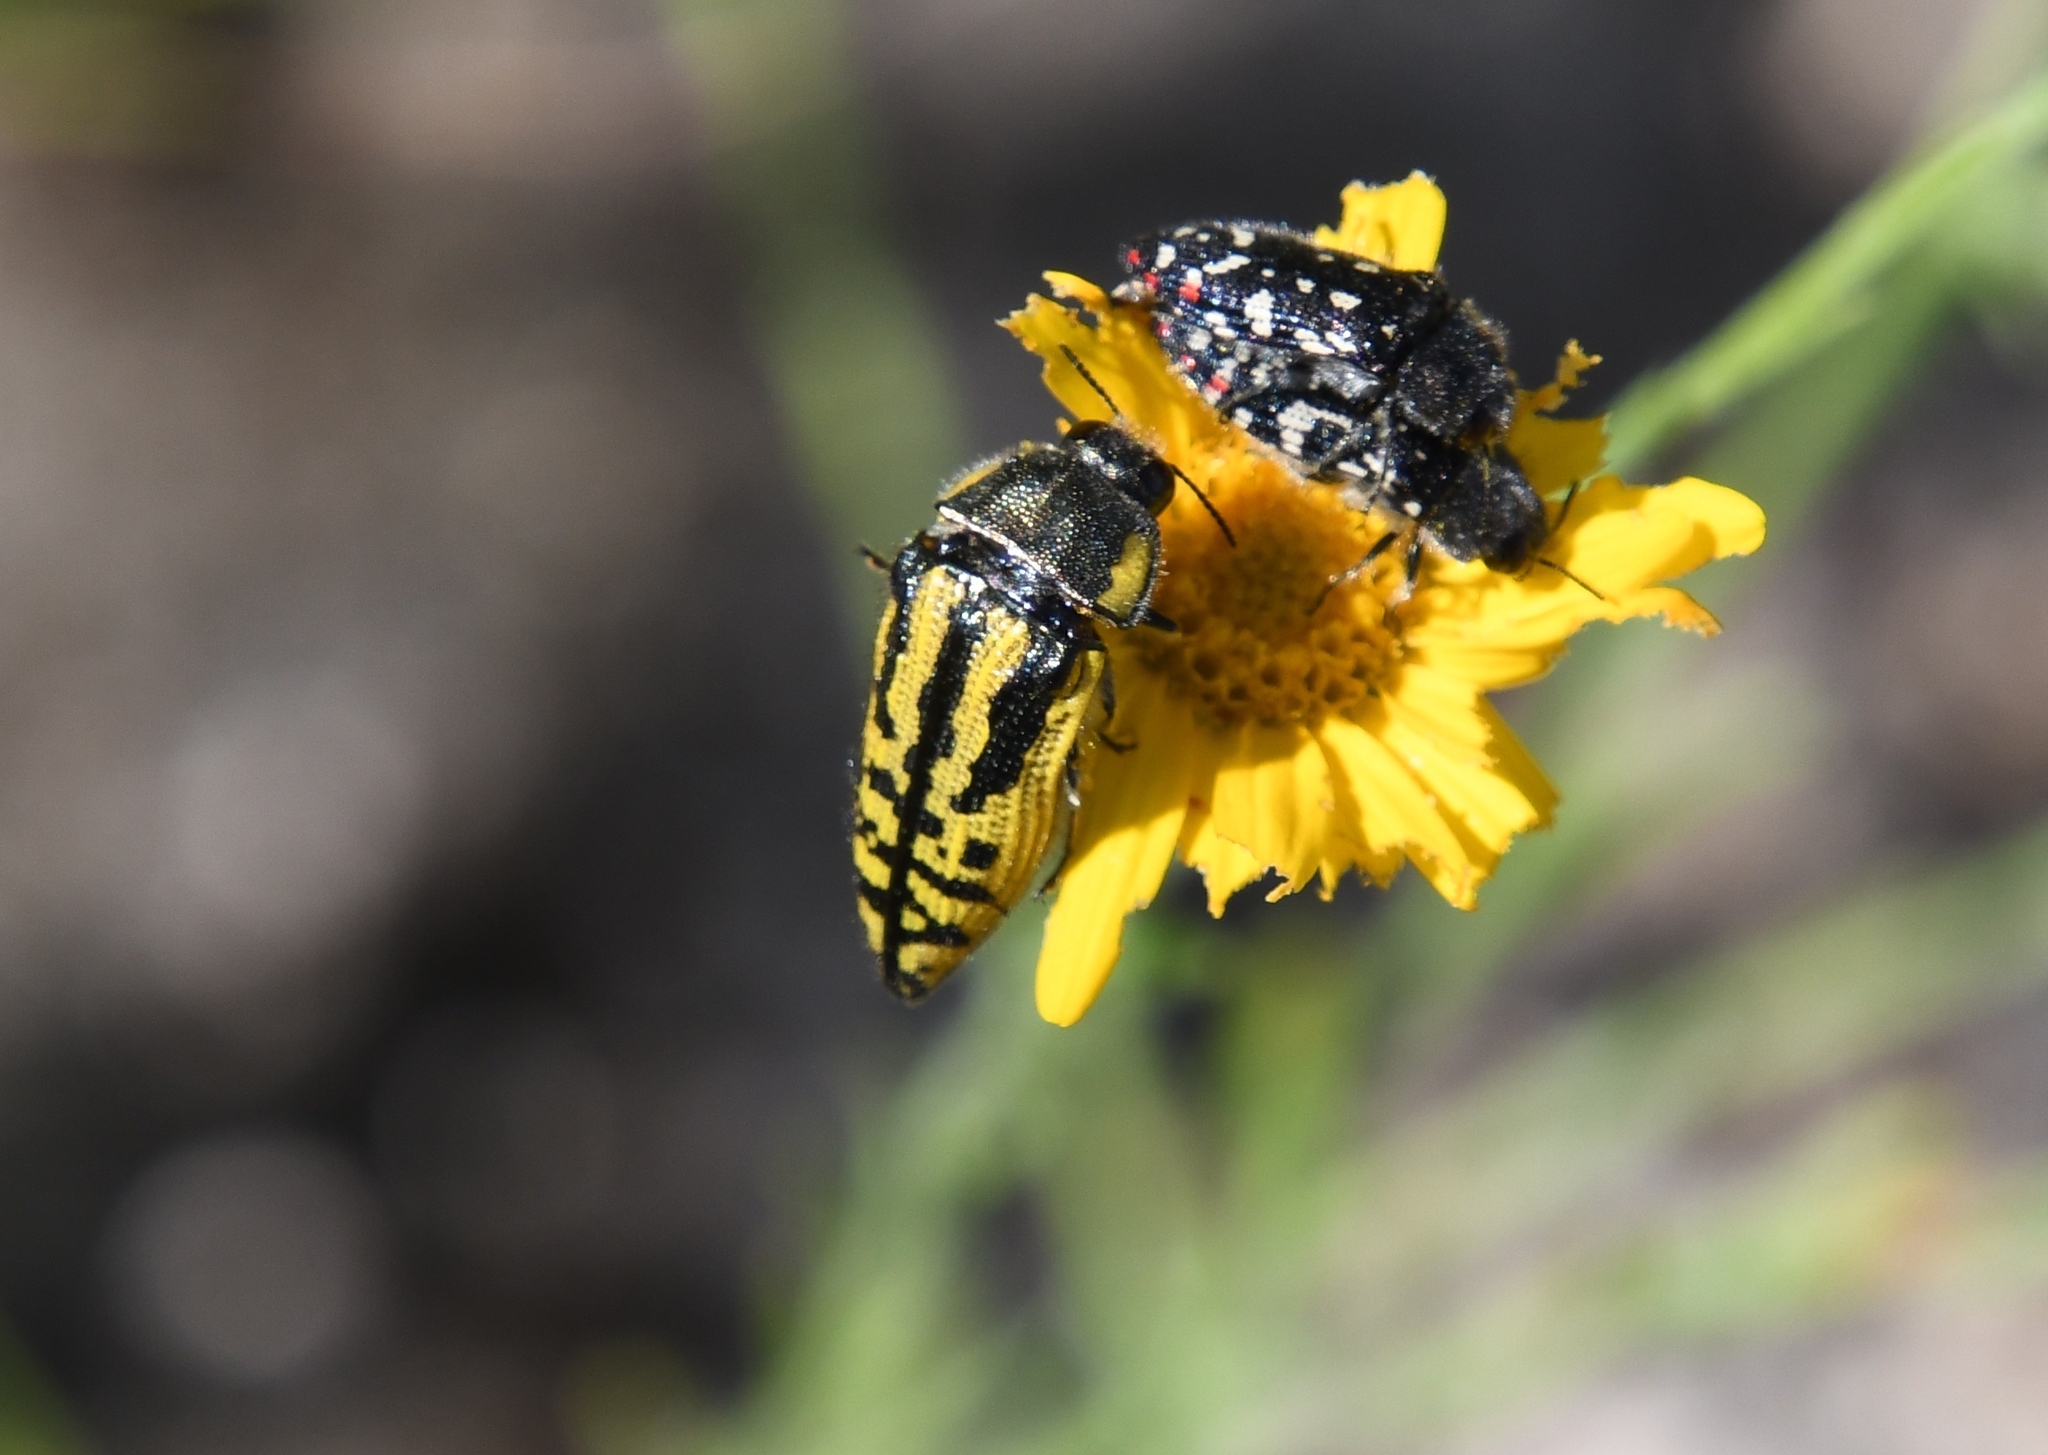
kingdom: Animalia
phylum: Arthropoda
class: Insecta
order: Coleoptera
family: Buprestidae
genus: Acmaeodera
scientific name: Acmaeodera amplicollis
